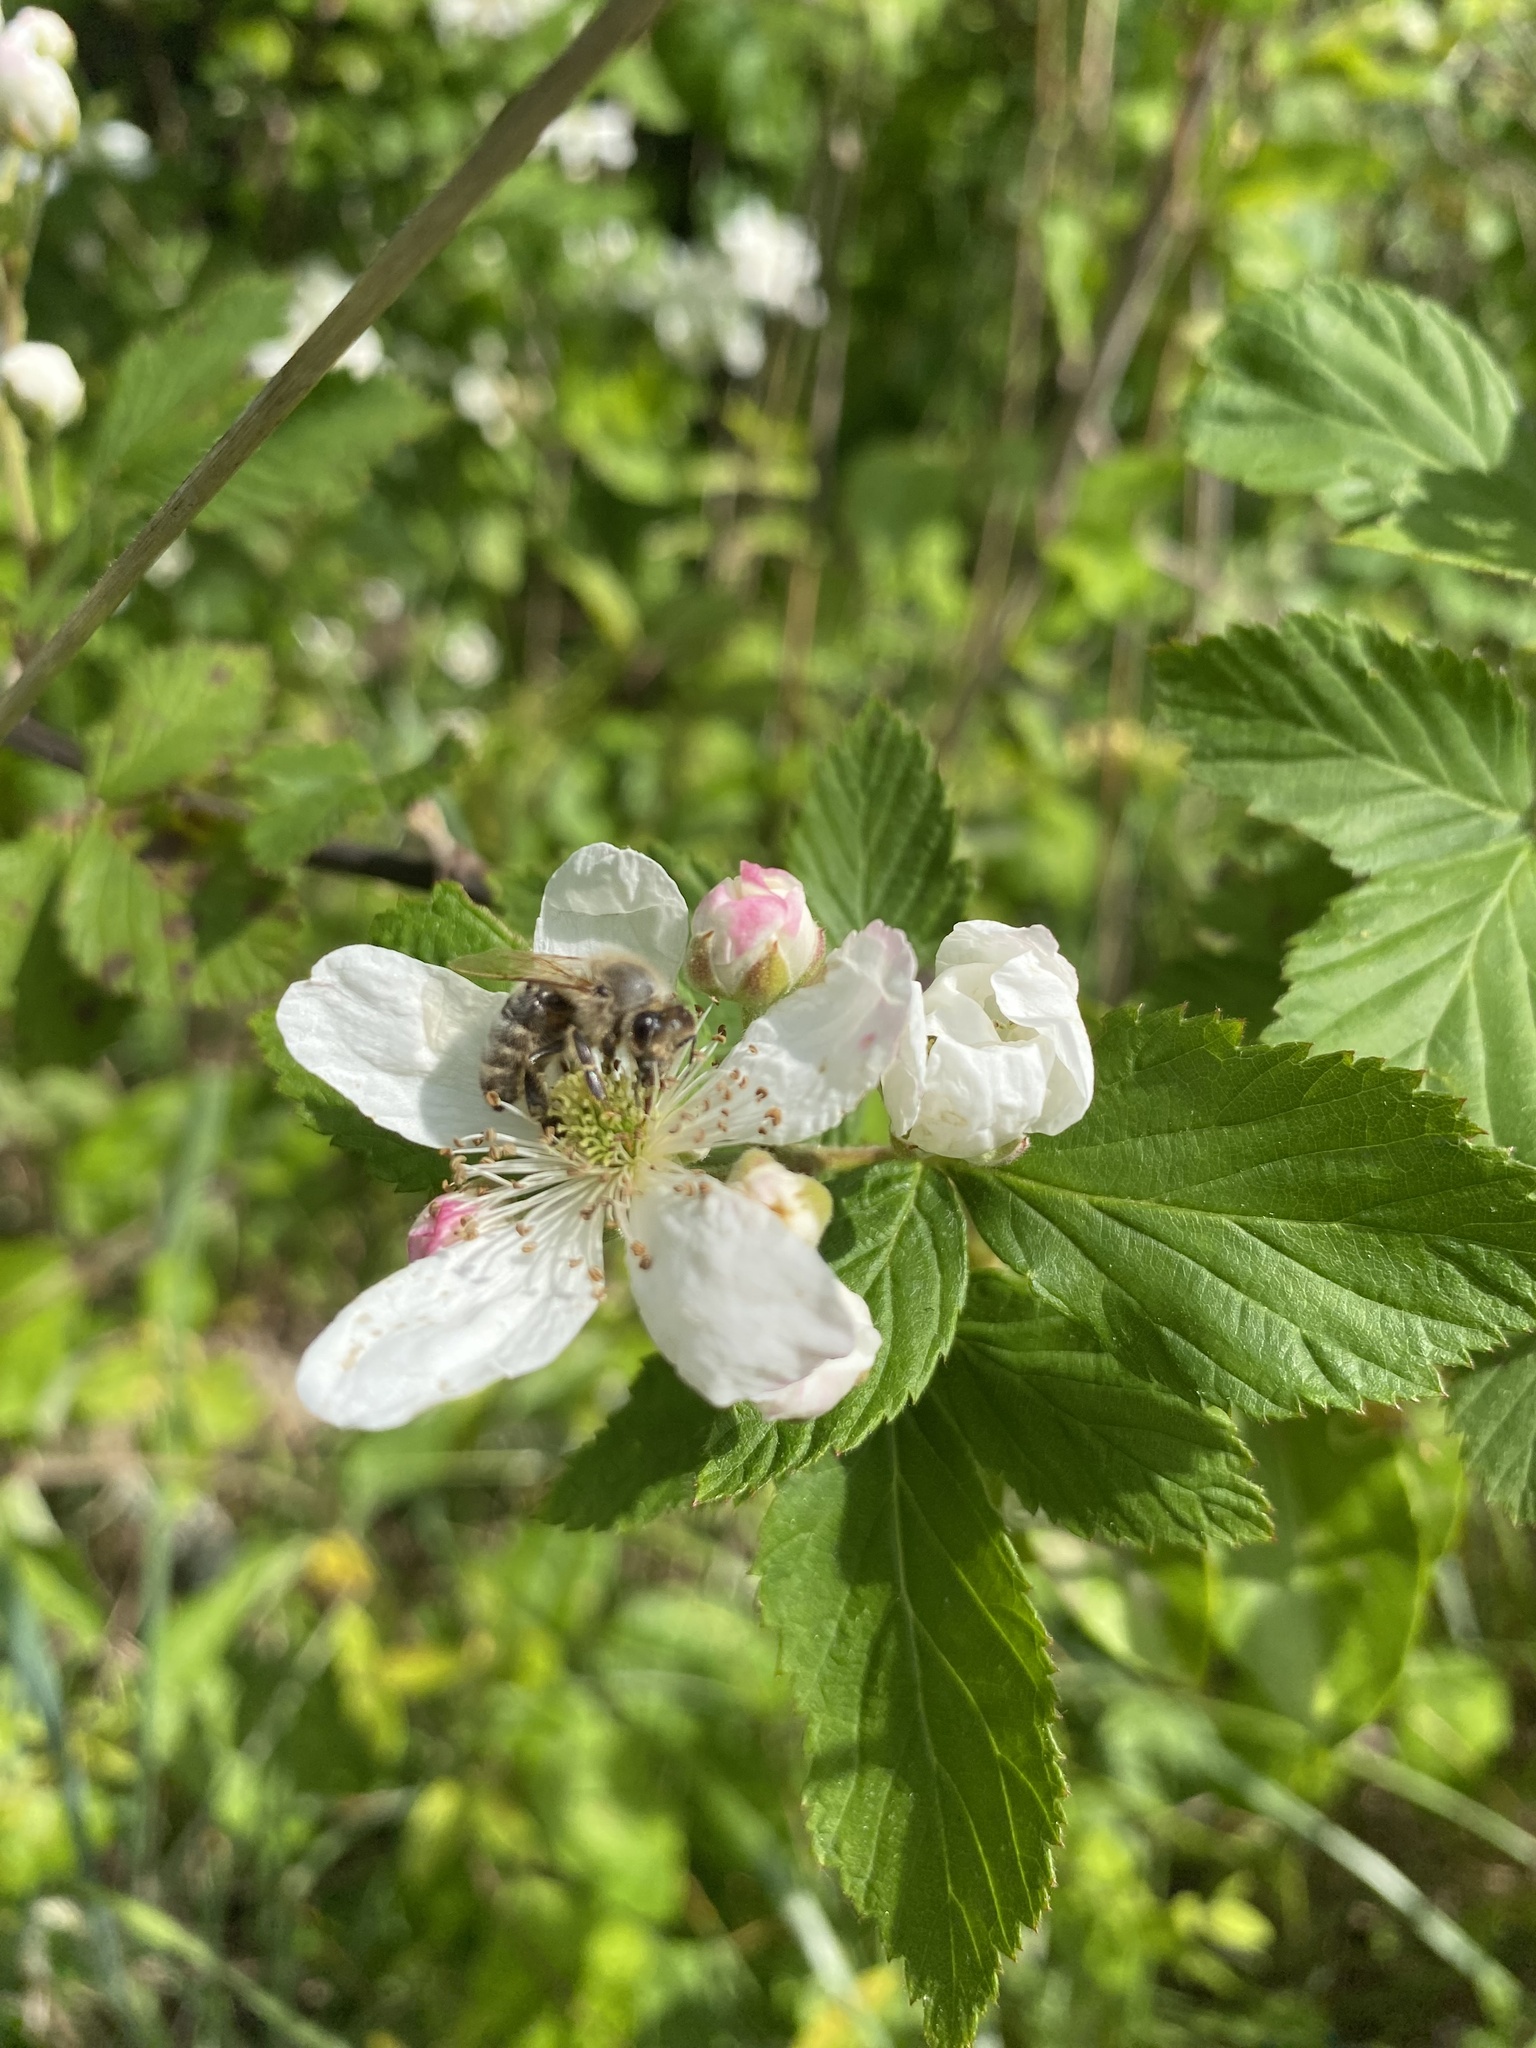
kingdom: Plantae
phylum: Tracheophyta
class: Magnoliopsida
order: Rosales
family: Rosaceae
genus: Rubus
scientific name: Rubus pensilvanicus
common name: Pennsylvania blackberry
